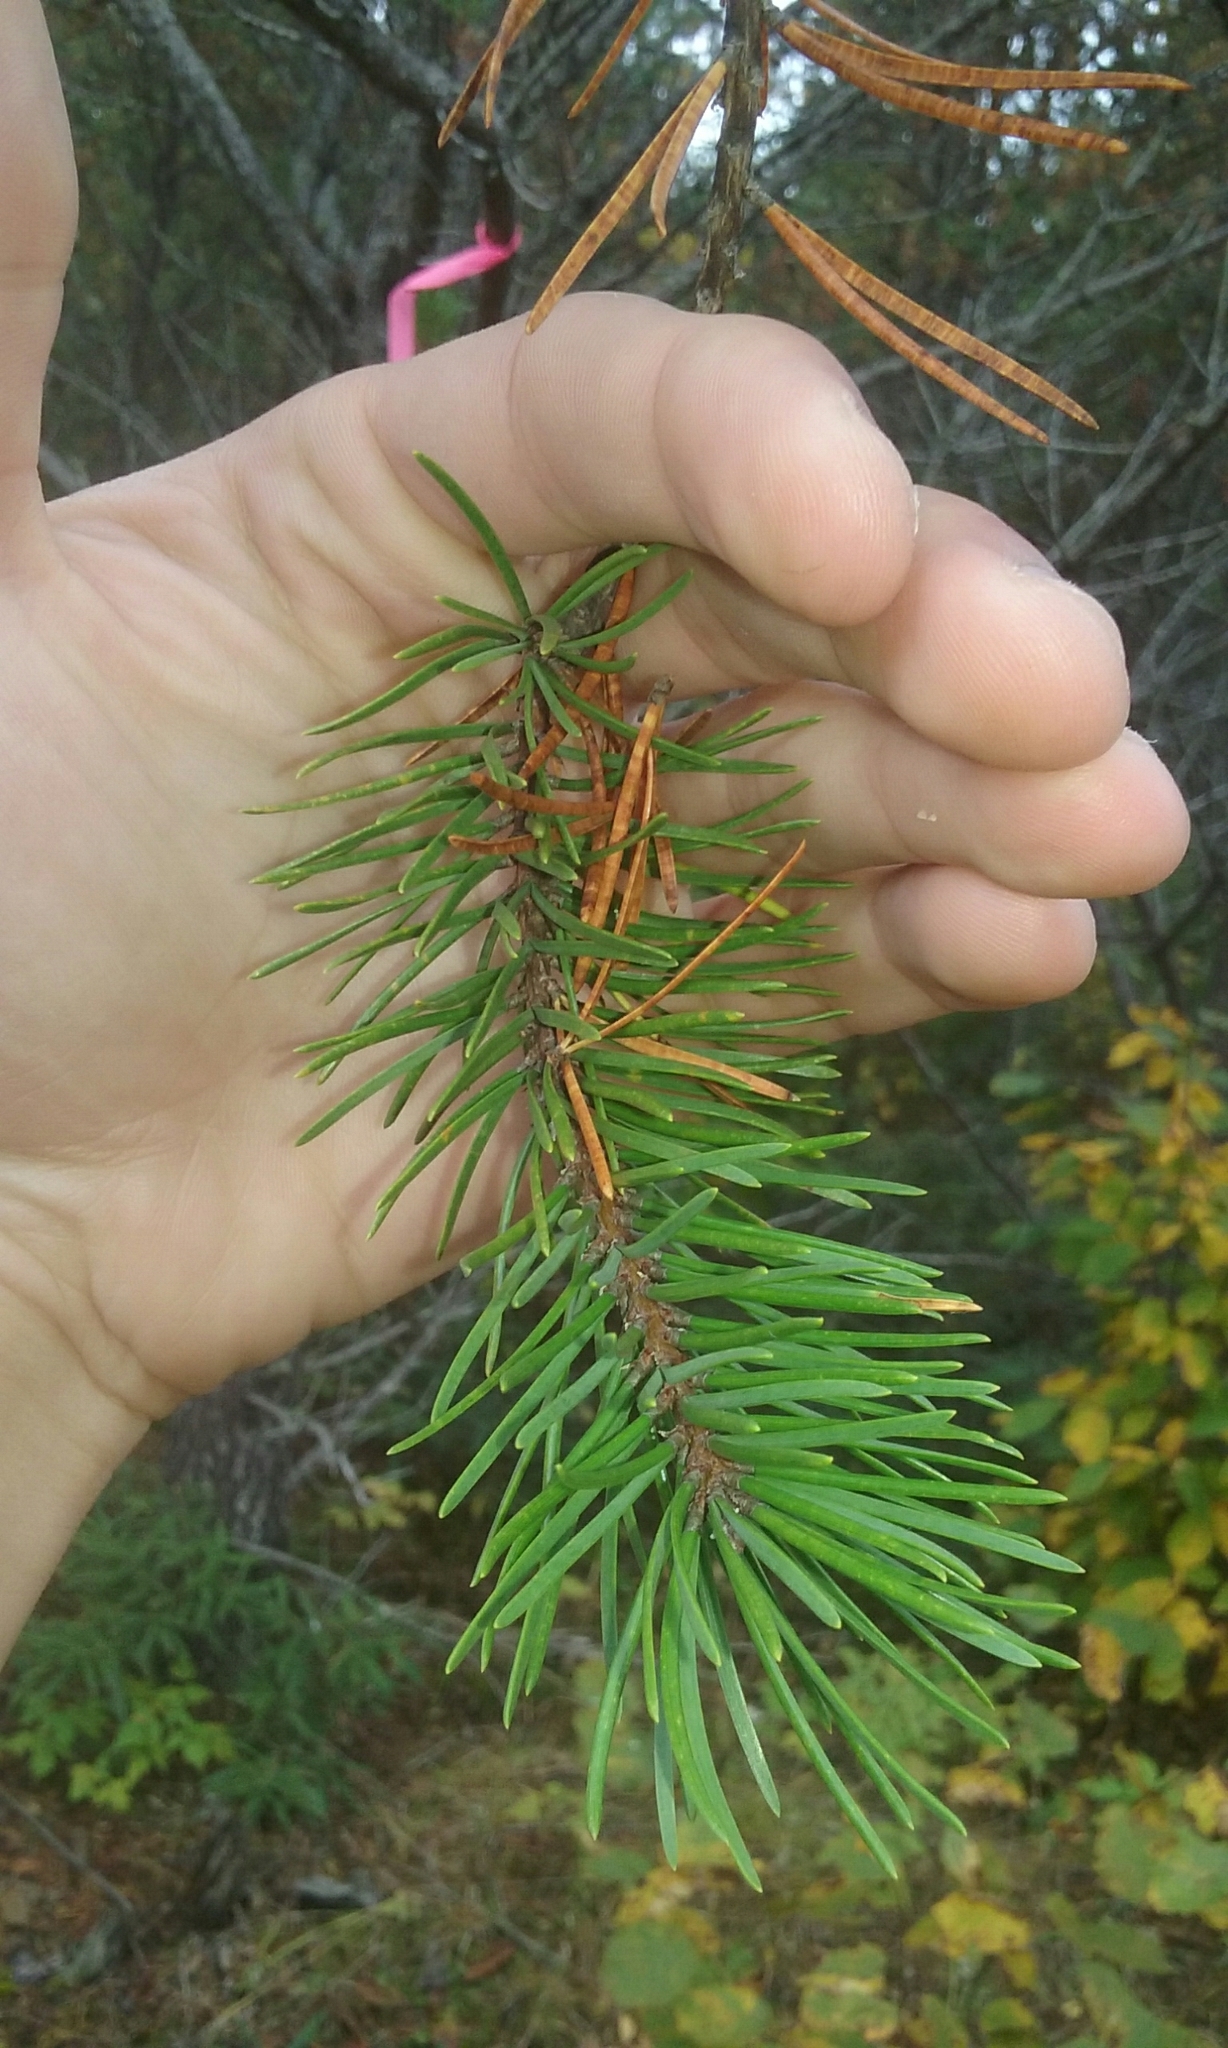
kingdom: Plantae
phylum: Tracheophyta
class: Pinopsida
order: Pinales
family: Pinaceae
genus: Pinus
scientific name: Pinus banksiana
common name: Jack pine
